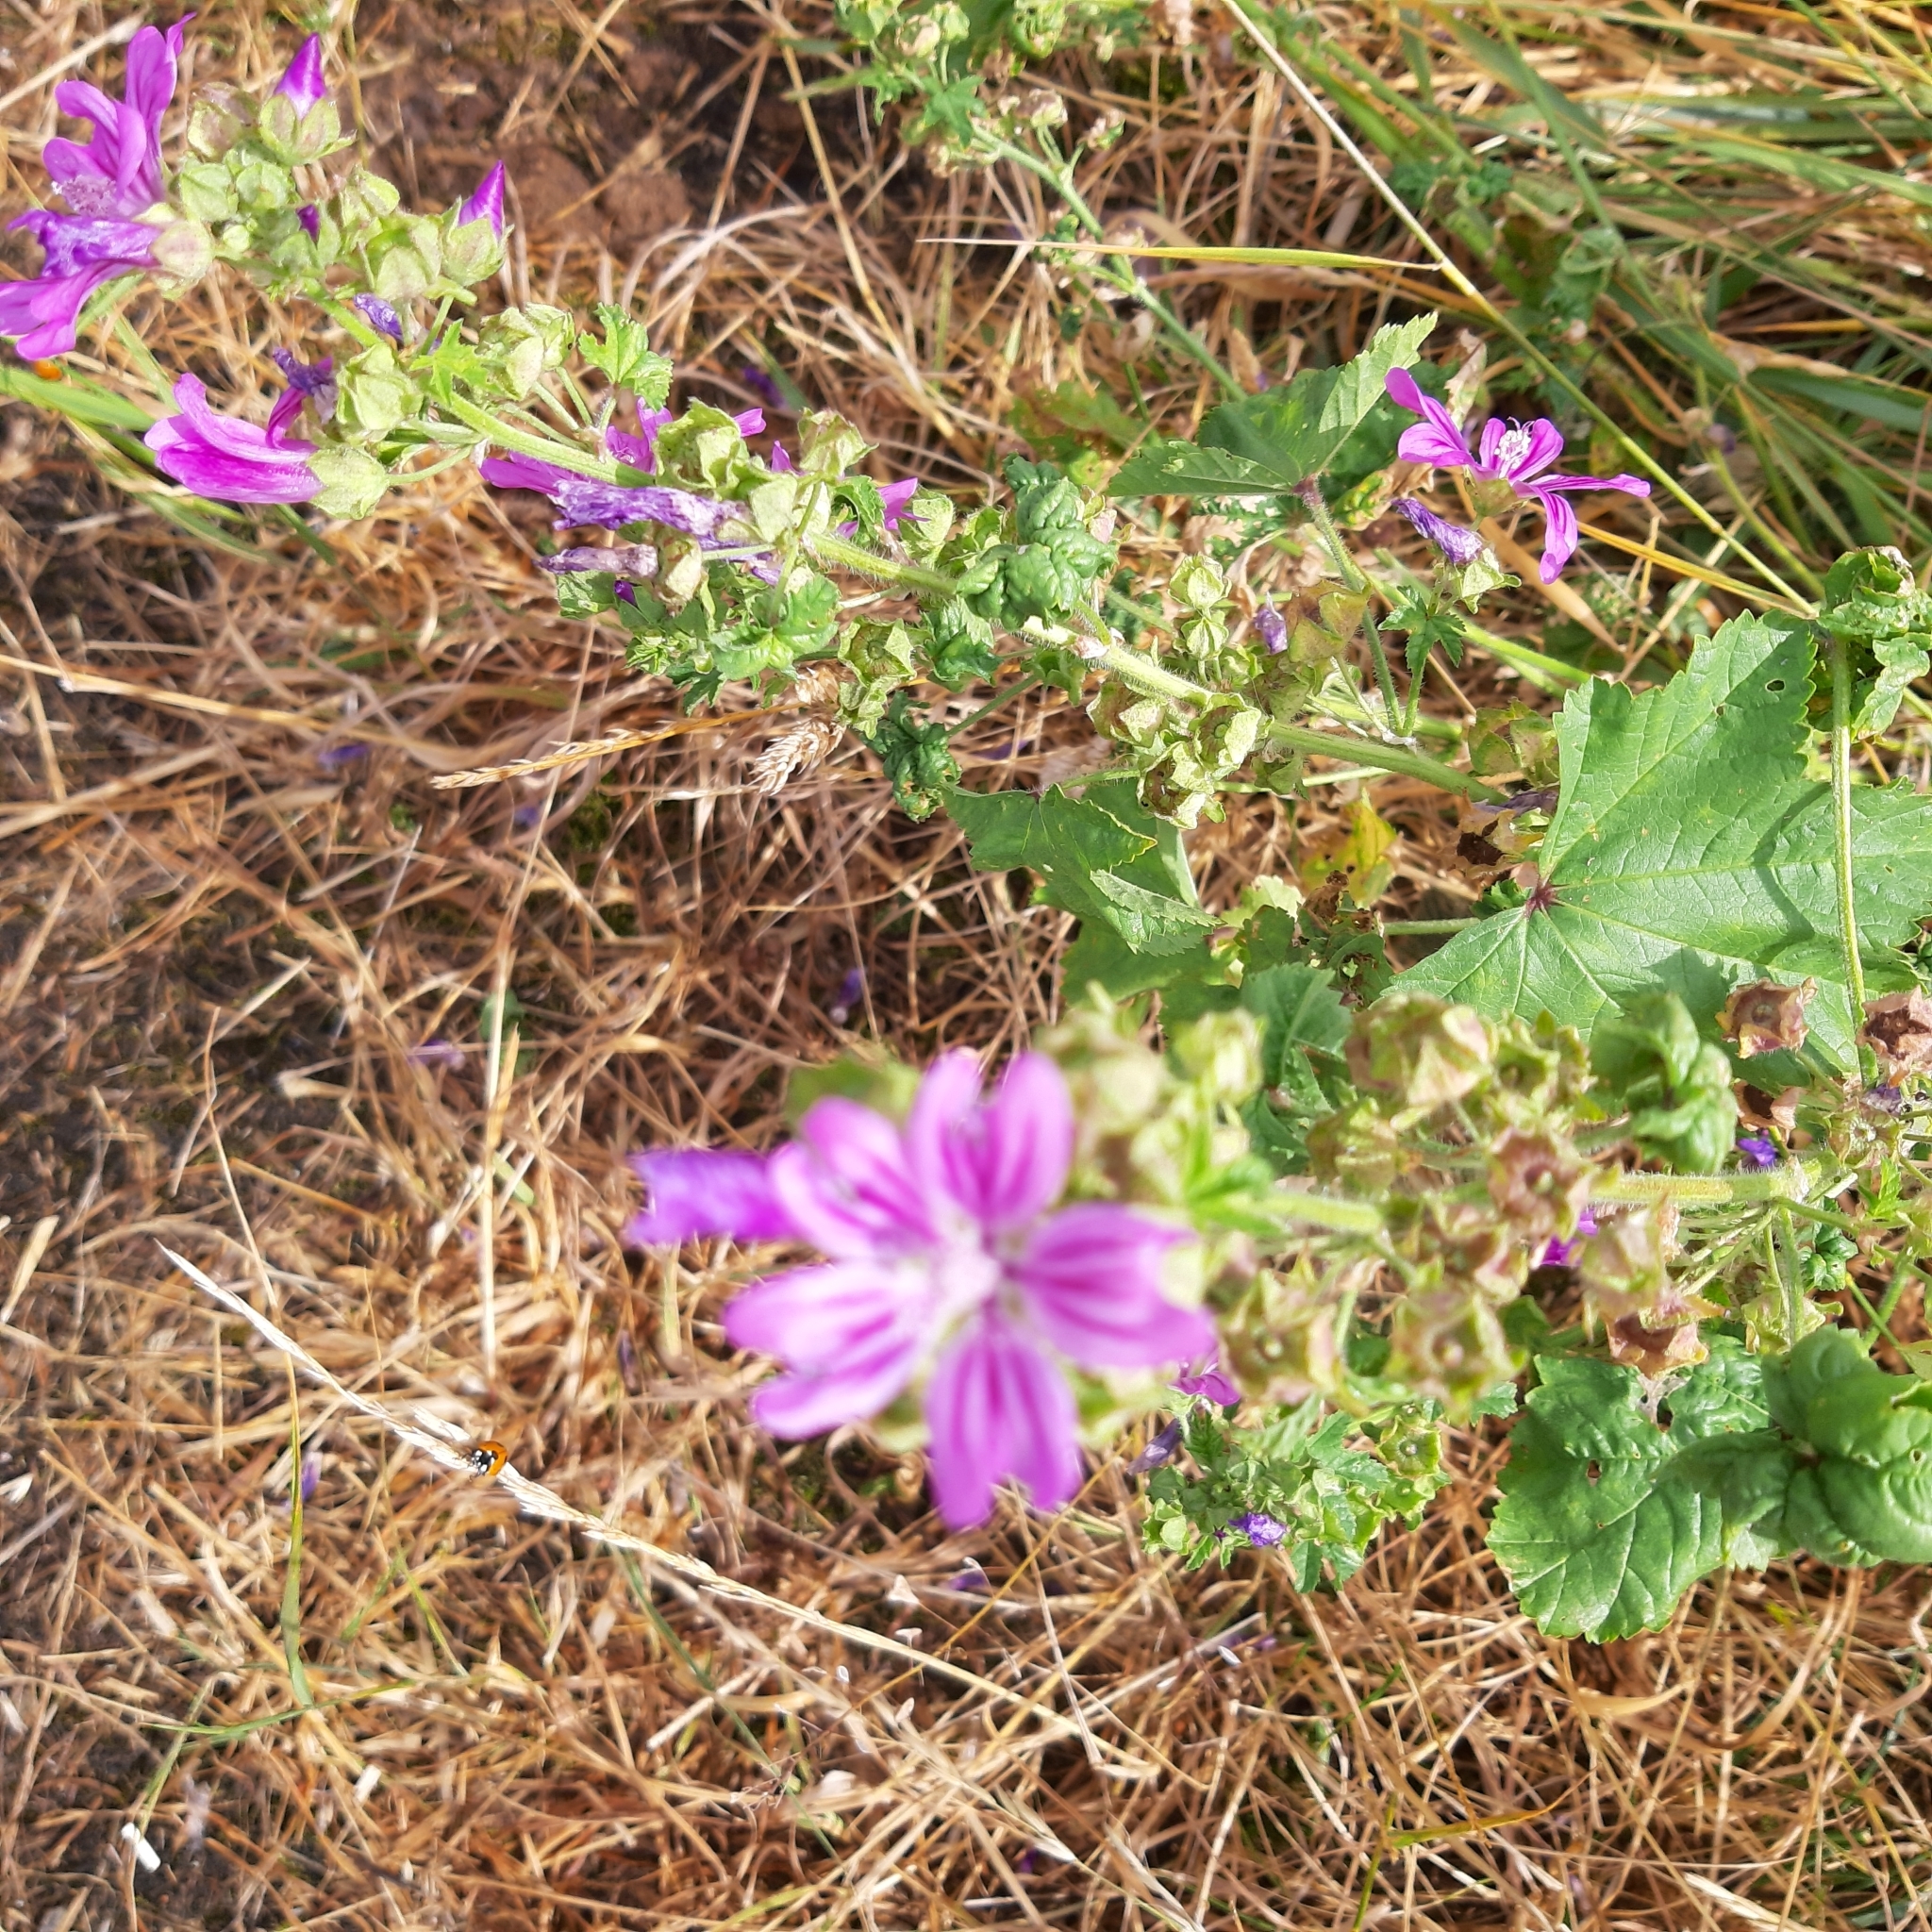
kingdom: Plantae
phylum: Tracheophyta
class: Magnoliopsida
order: Malvales
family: Malvaceae
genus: Malva
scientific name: Malva sylvestris
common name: Common mallow
